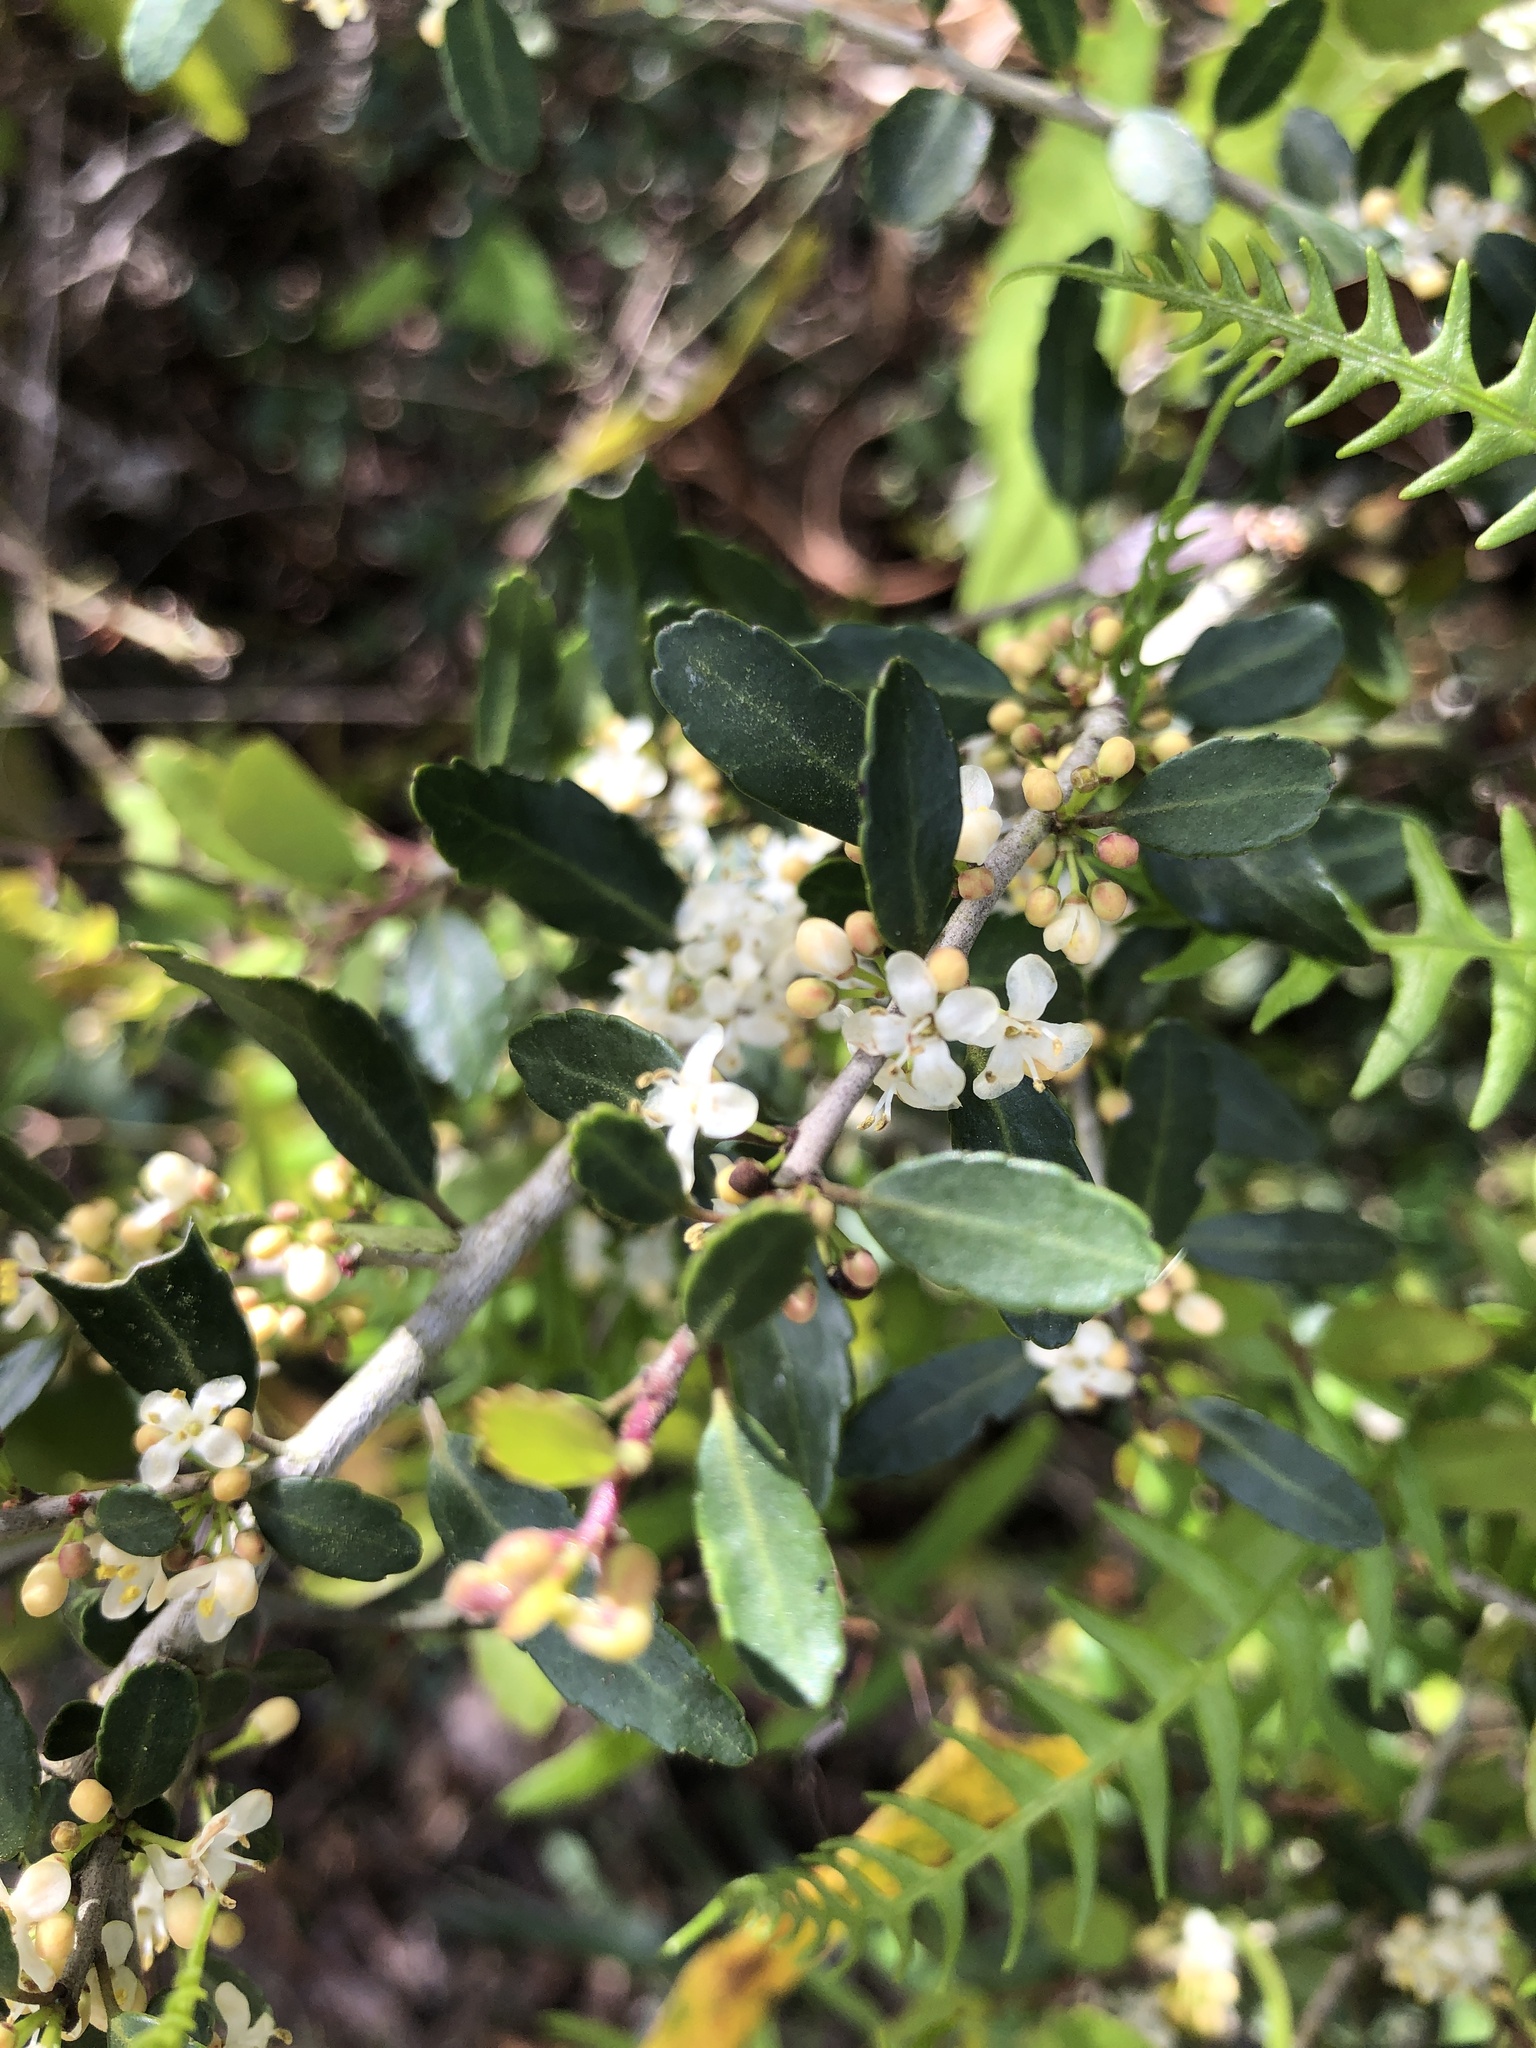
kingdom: Plantae
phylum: Tracheophyta
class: Magnoliopsida
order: Aquifoliales
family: Aquifoliaceae
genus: Ilex
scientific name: Ilex vomitoria
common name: Yaupon holly
